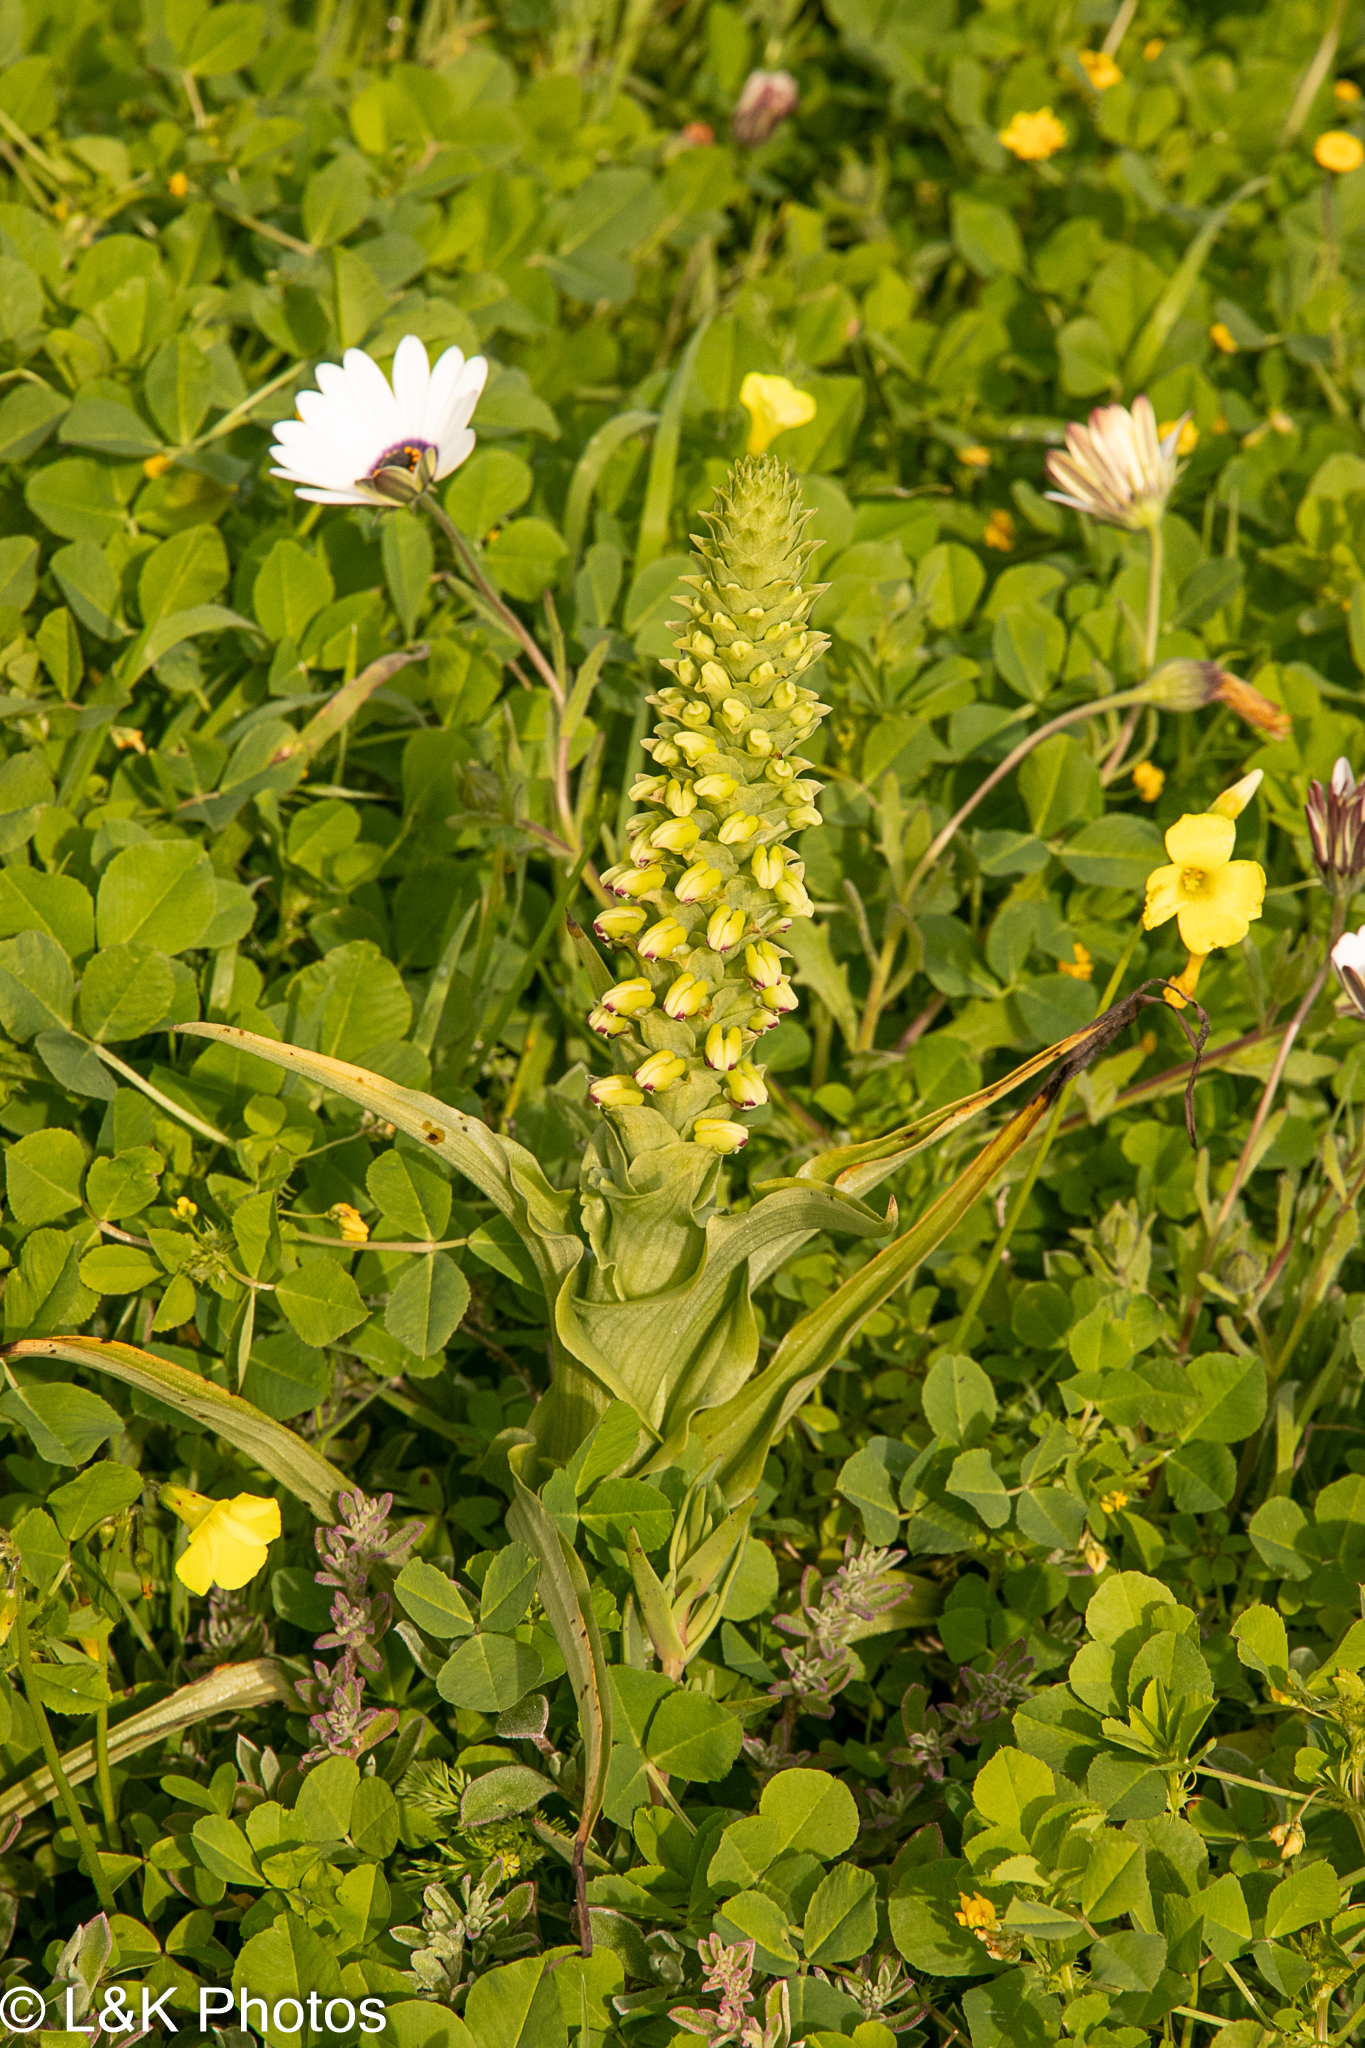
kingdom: Plantae
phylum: Tracheophyta
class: Liliopsida
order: Asparagales
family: Orchidaceae
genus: Corycium
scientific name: Corycium orobanchoides
